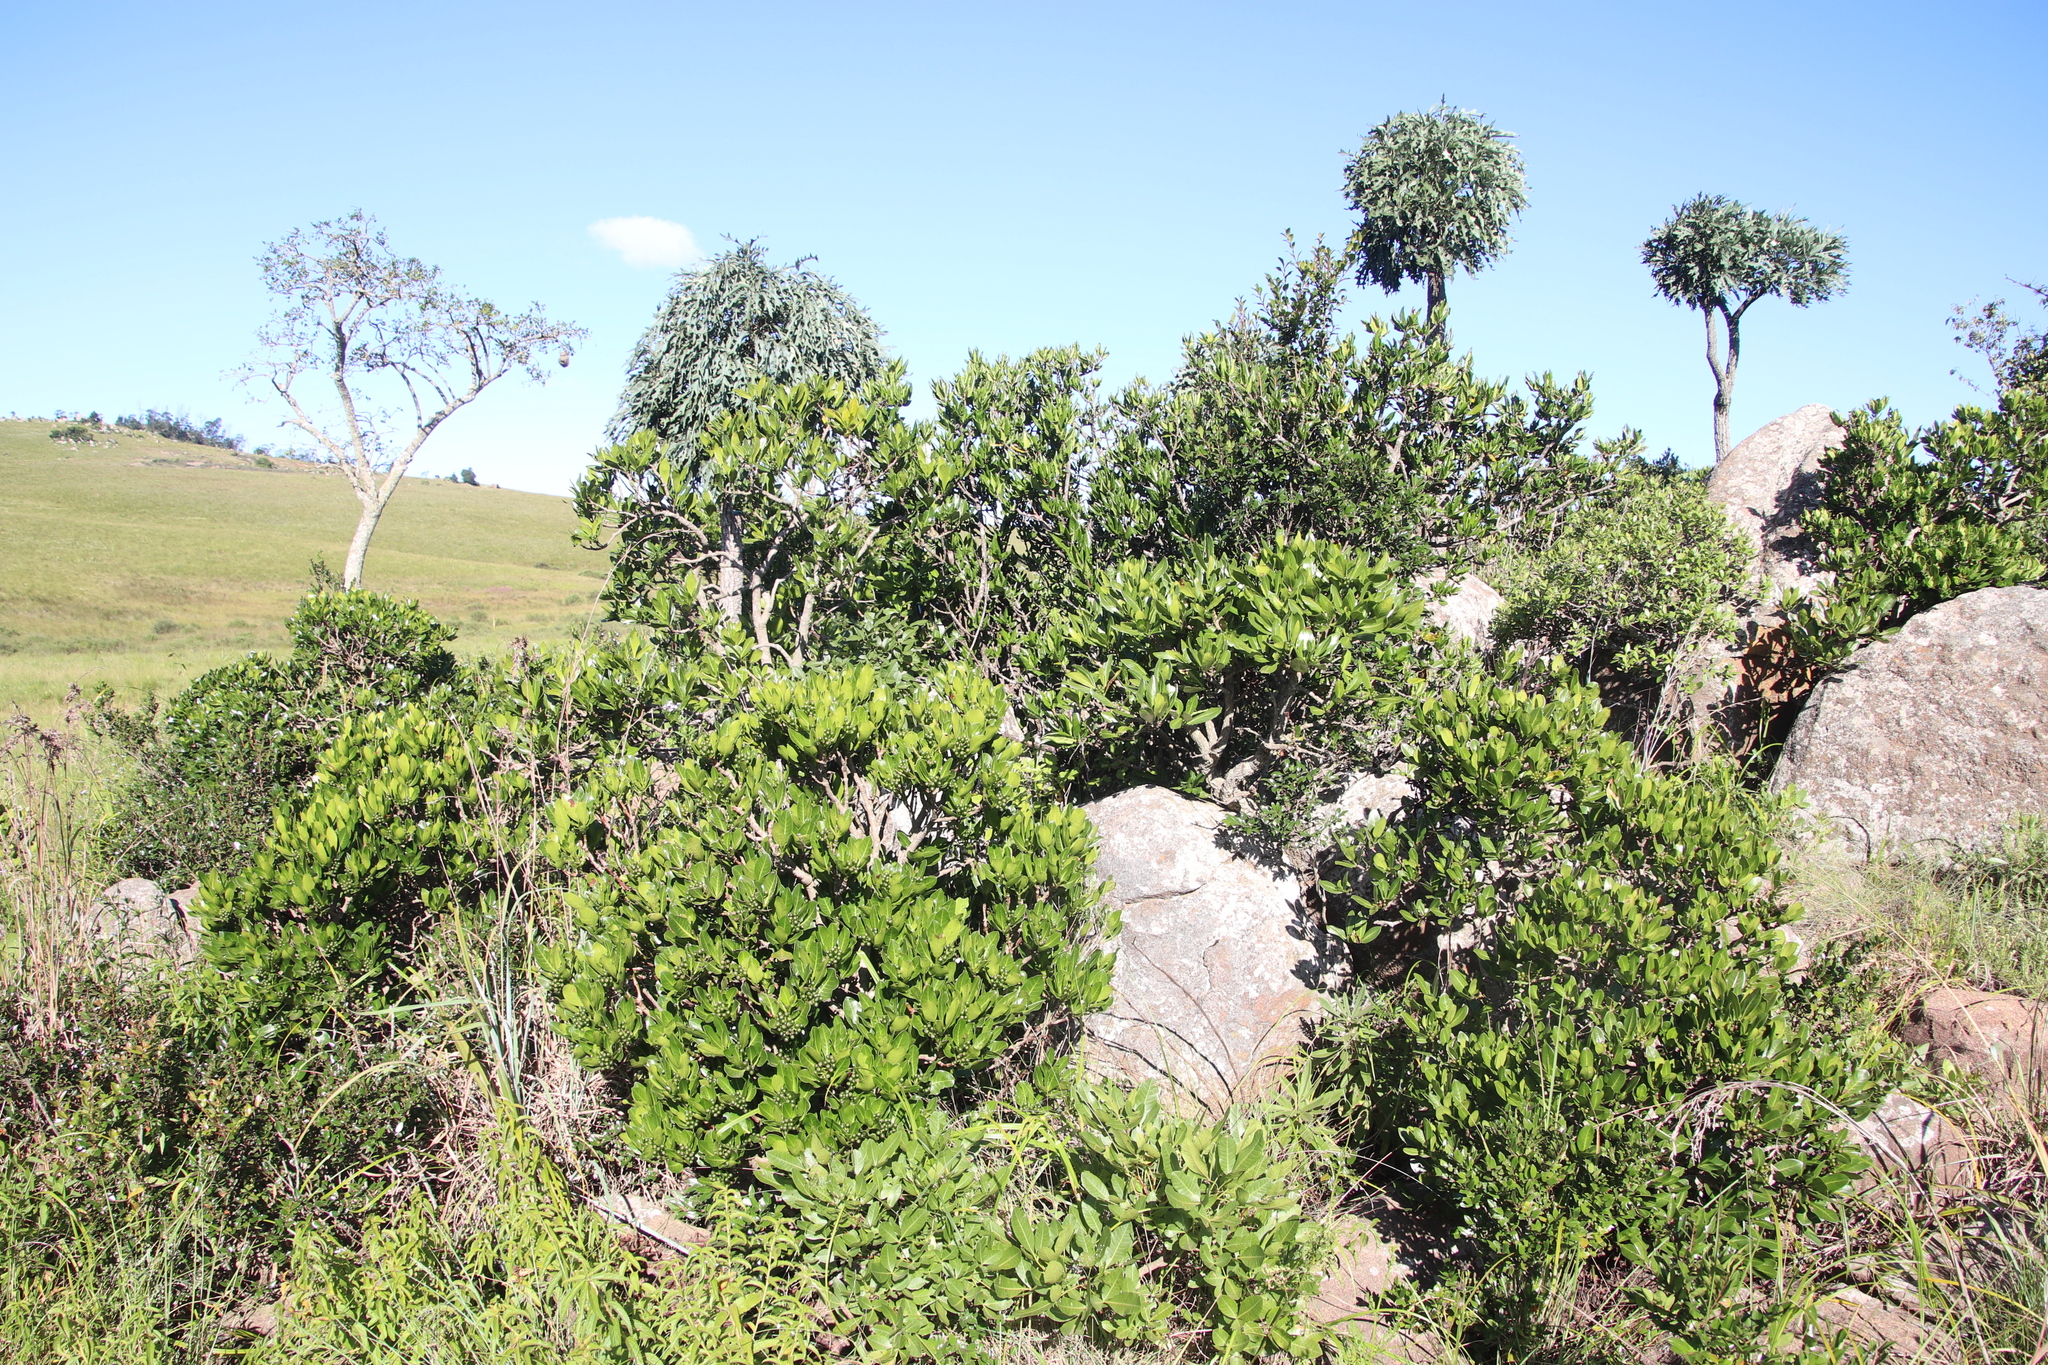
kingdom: Plantae
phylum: Tracheophyta
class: Magnoliopsida
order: Gentianales
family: Rubiaceae
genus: Psychotria
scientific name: Psychotria
